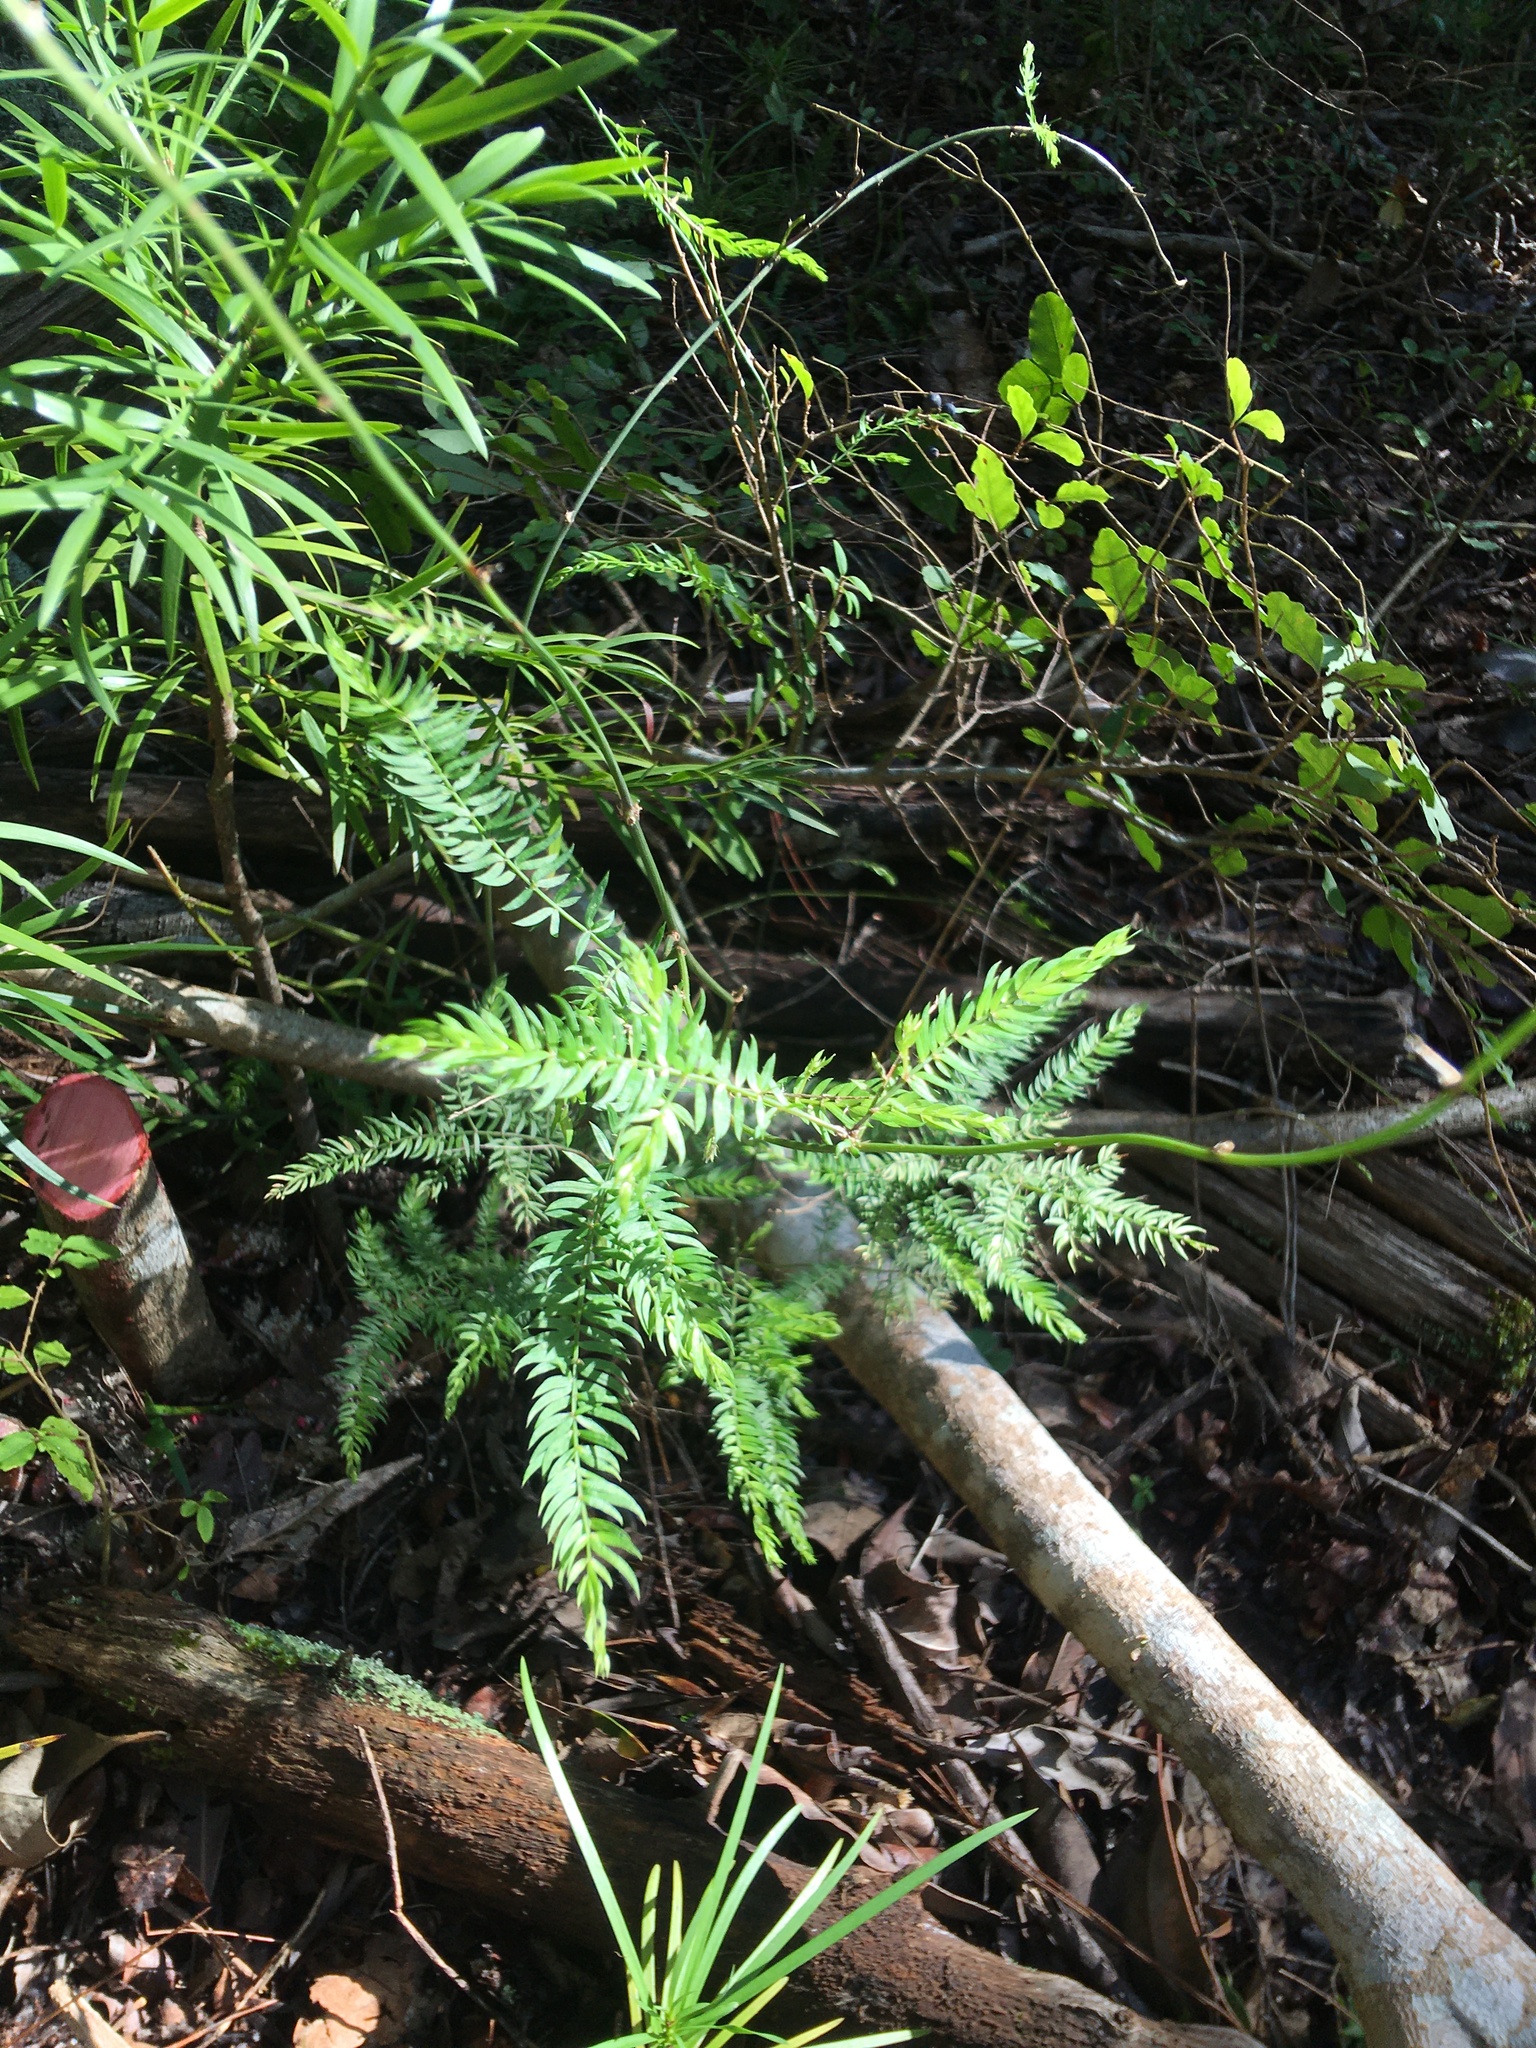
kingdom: Plantae
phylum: Tracheophyta
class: Liliopsida
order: Asparagales
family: Asparagaceae
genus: Asparagus
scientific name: Asparagus scandens
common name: Asparagus-fern
